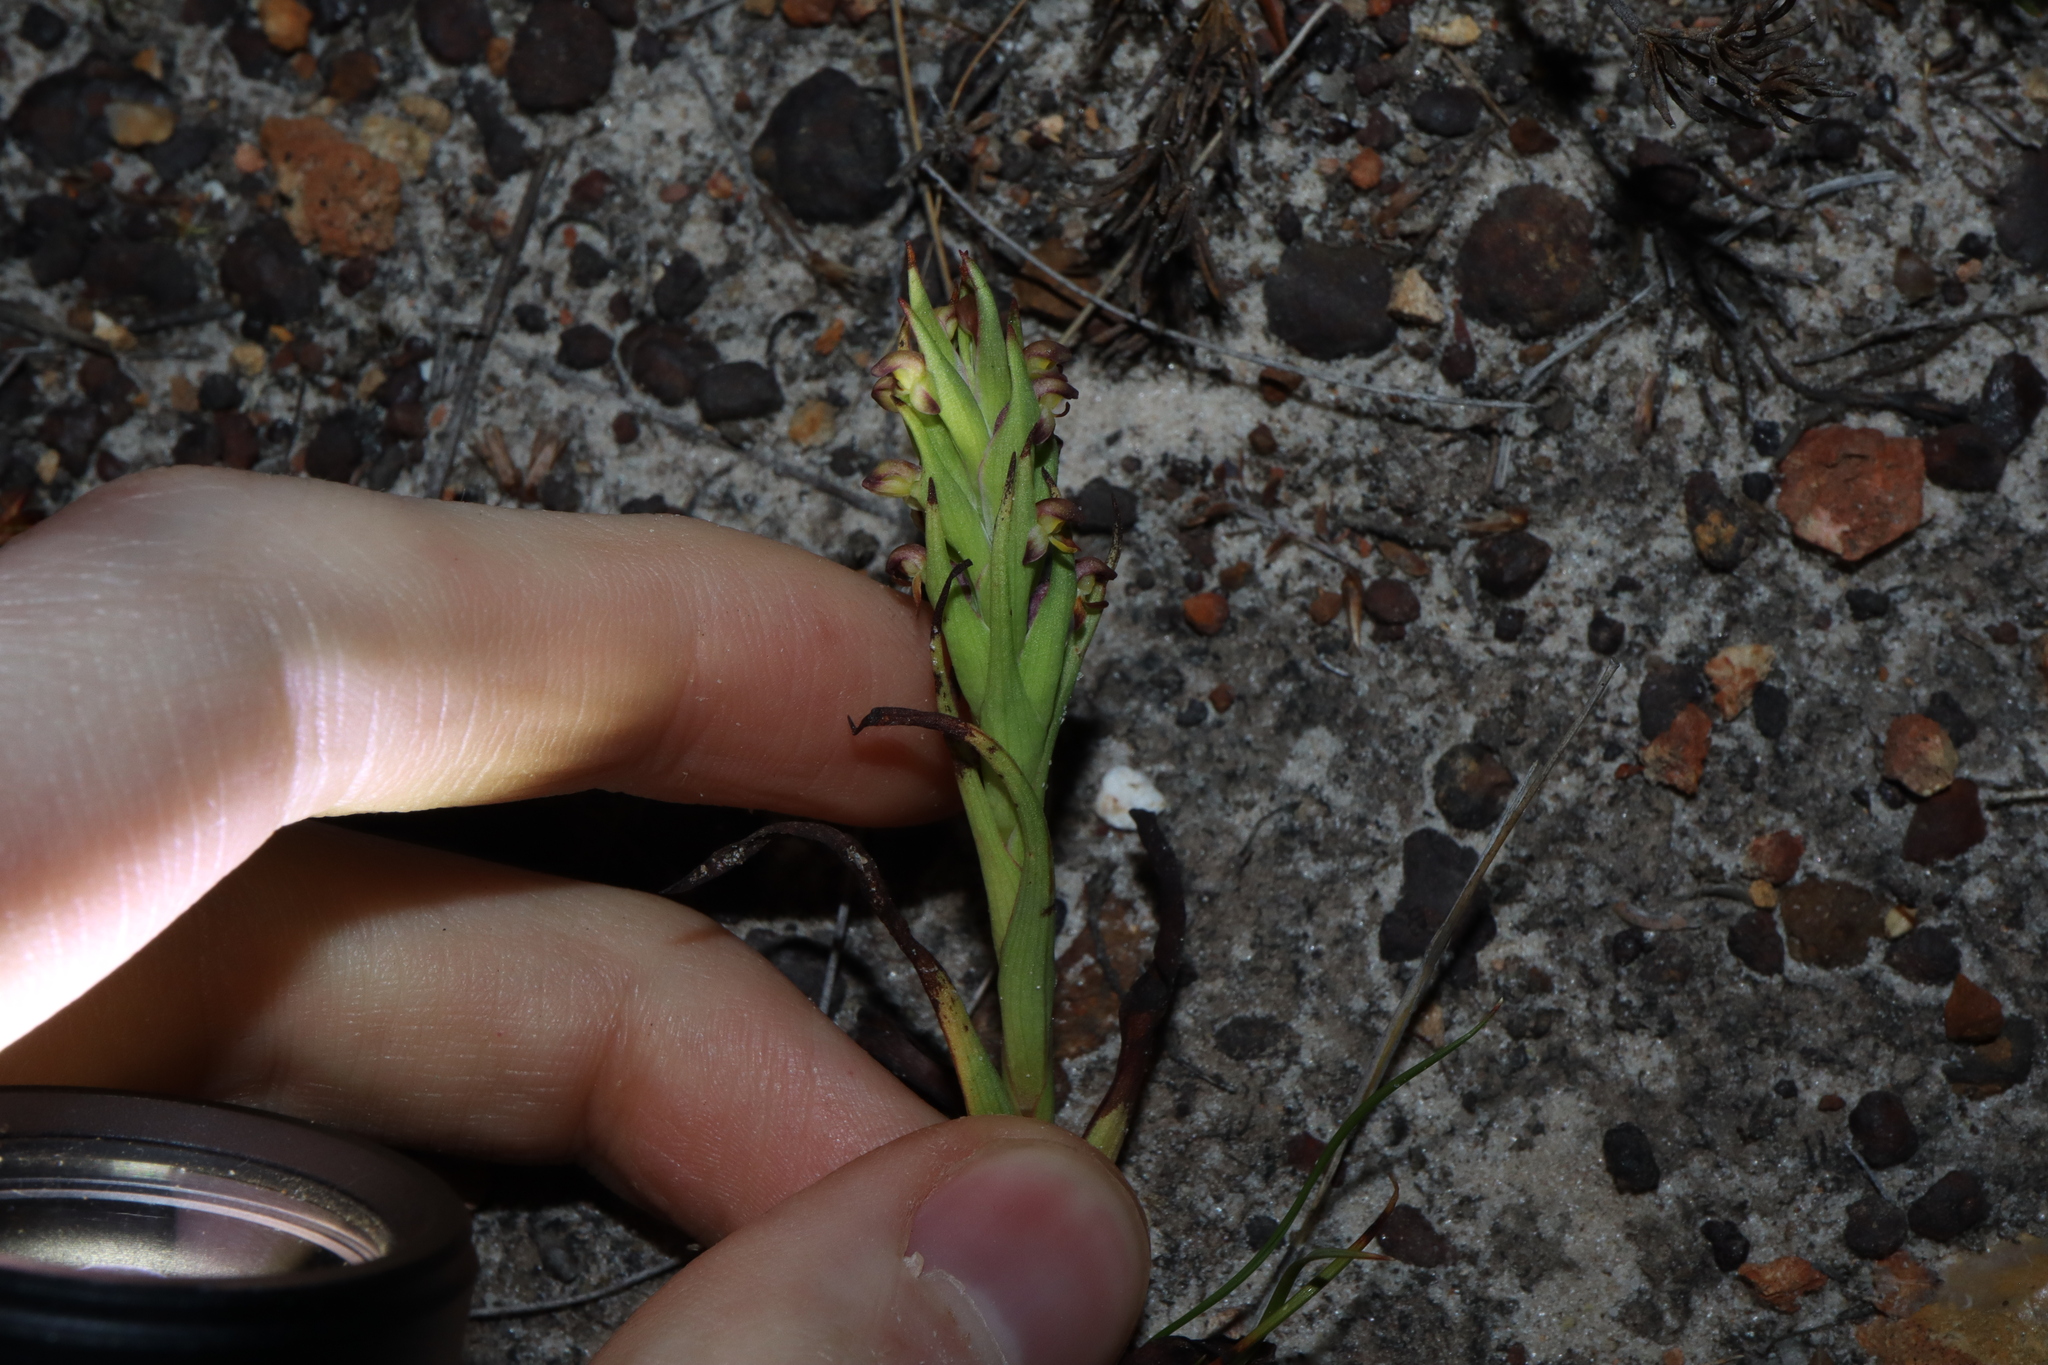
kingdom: Plantae
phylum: Tracheophyta
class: Liliopsida
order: Asparagales
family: Orchidaceae
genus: Disa
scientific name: Disa bracteata
